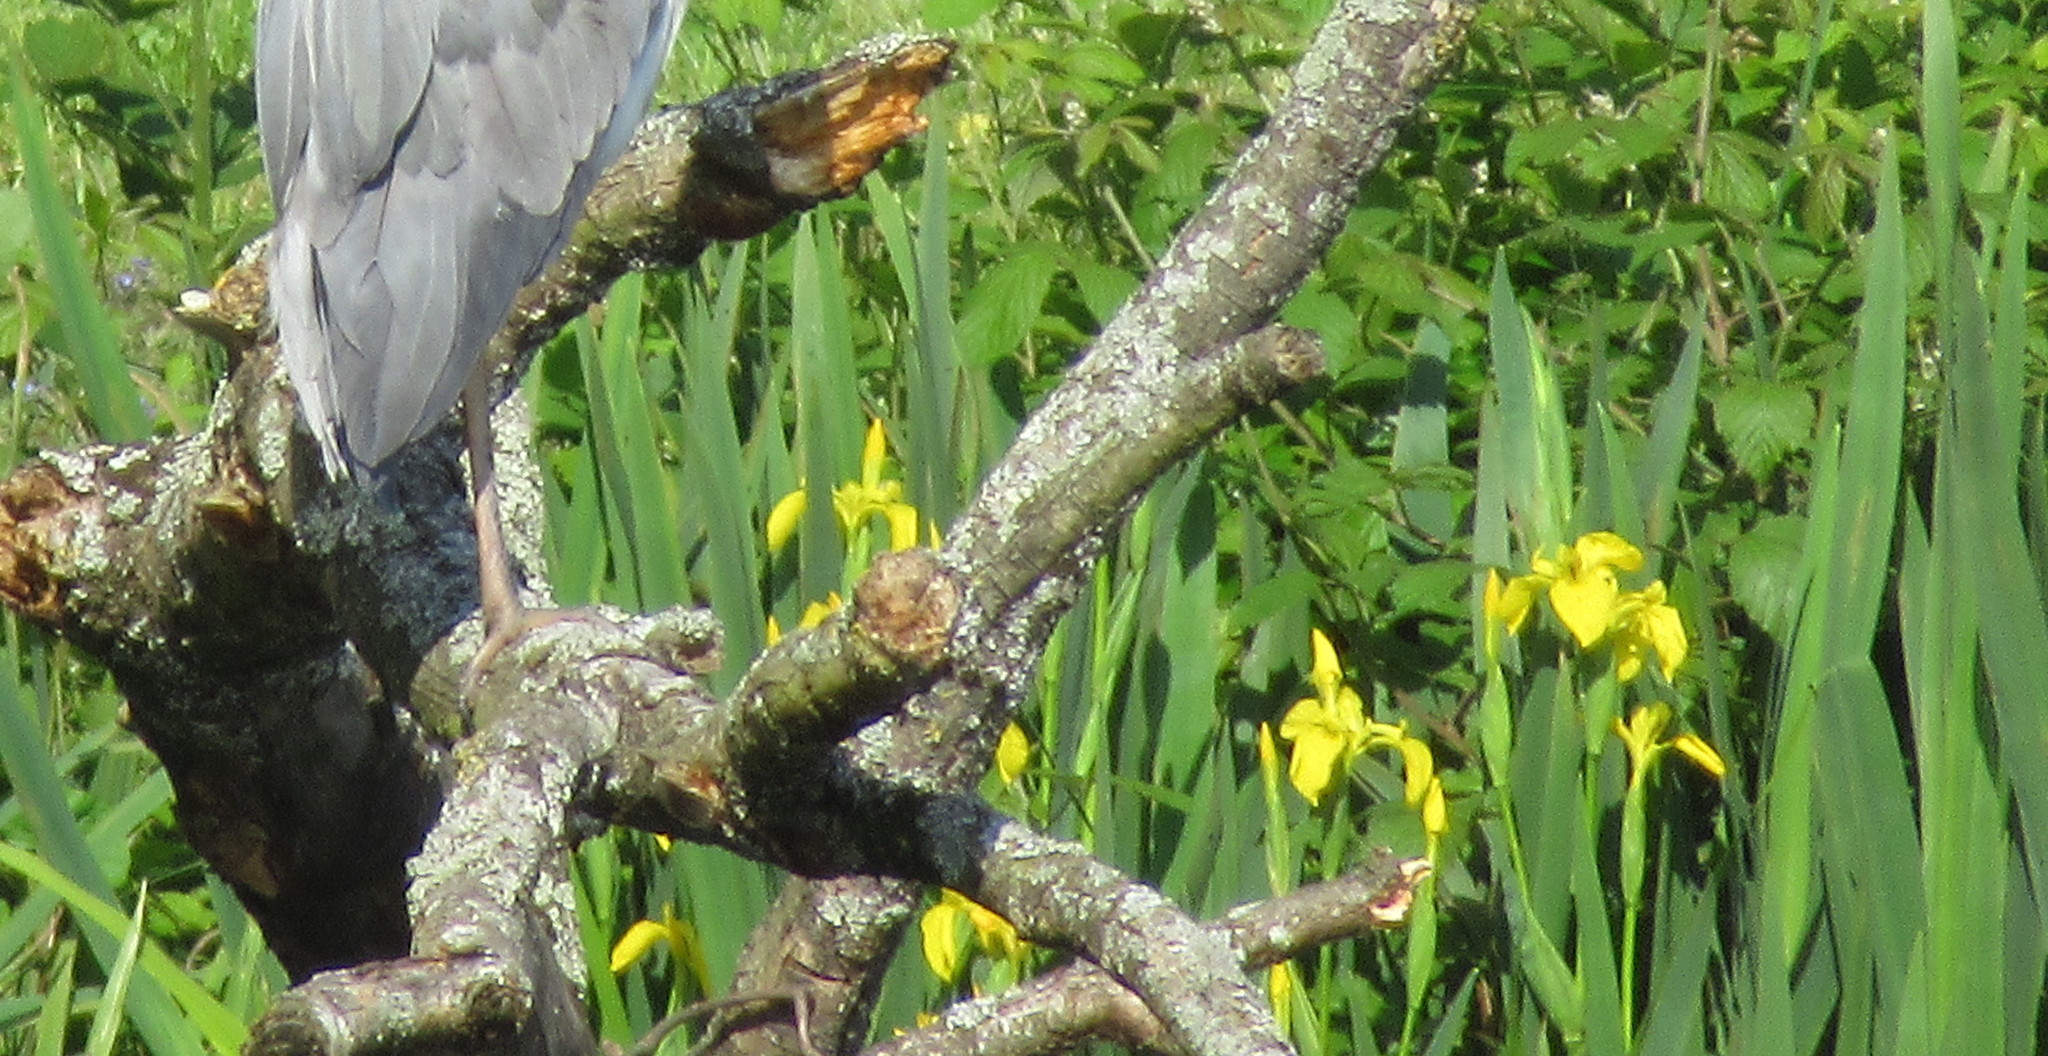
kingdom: Plantae
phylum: Tracheophyta
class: Liliopsida
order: Asparagales
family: Iridaceae
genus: Iris
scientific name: Iris pseudacorus
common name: Yellow flag
